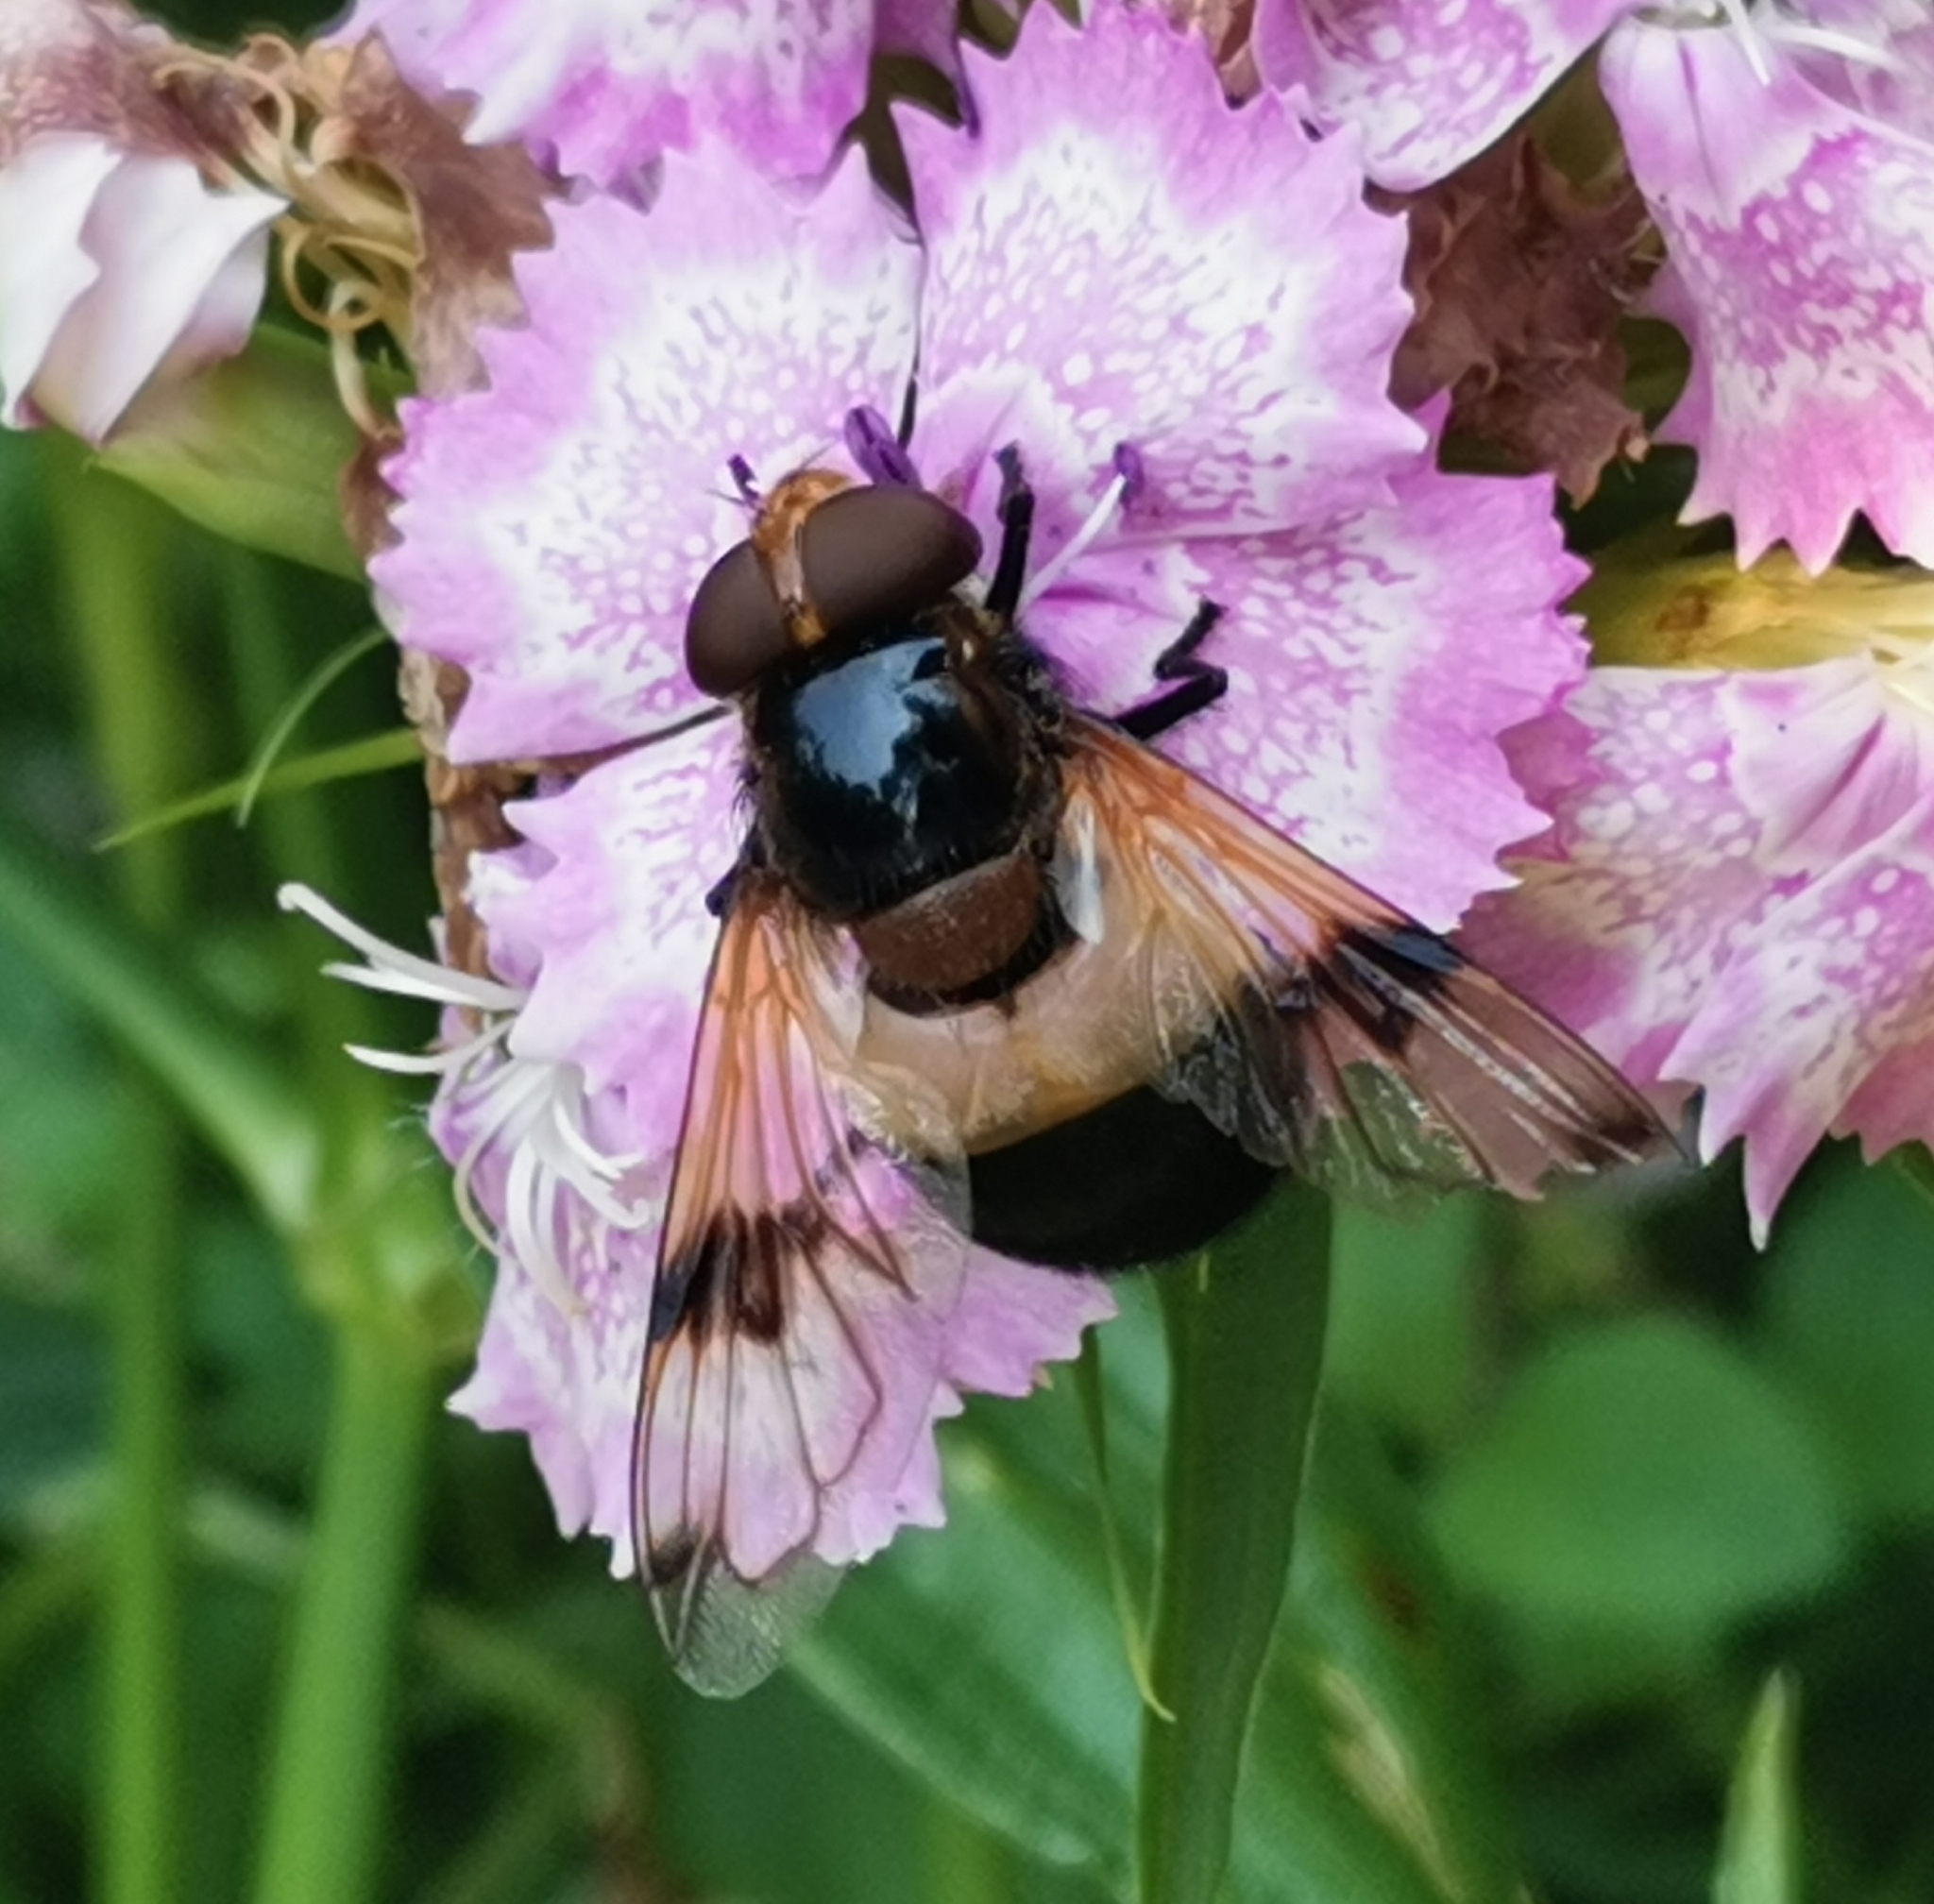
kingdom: Animalia
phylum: Arthropoda
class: Insecta
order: Diptera
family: Syrphidae
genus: Volucella
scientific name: Volucella pellucens
